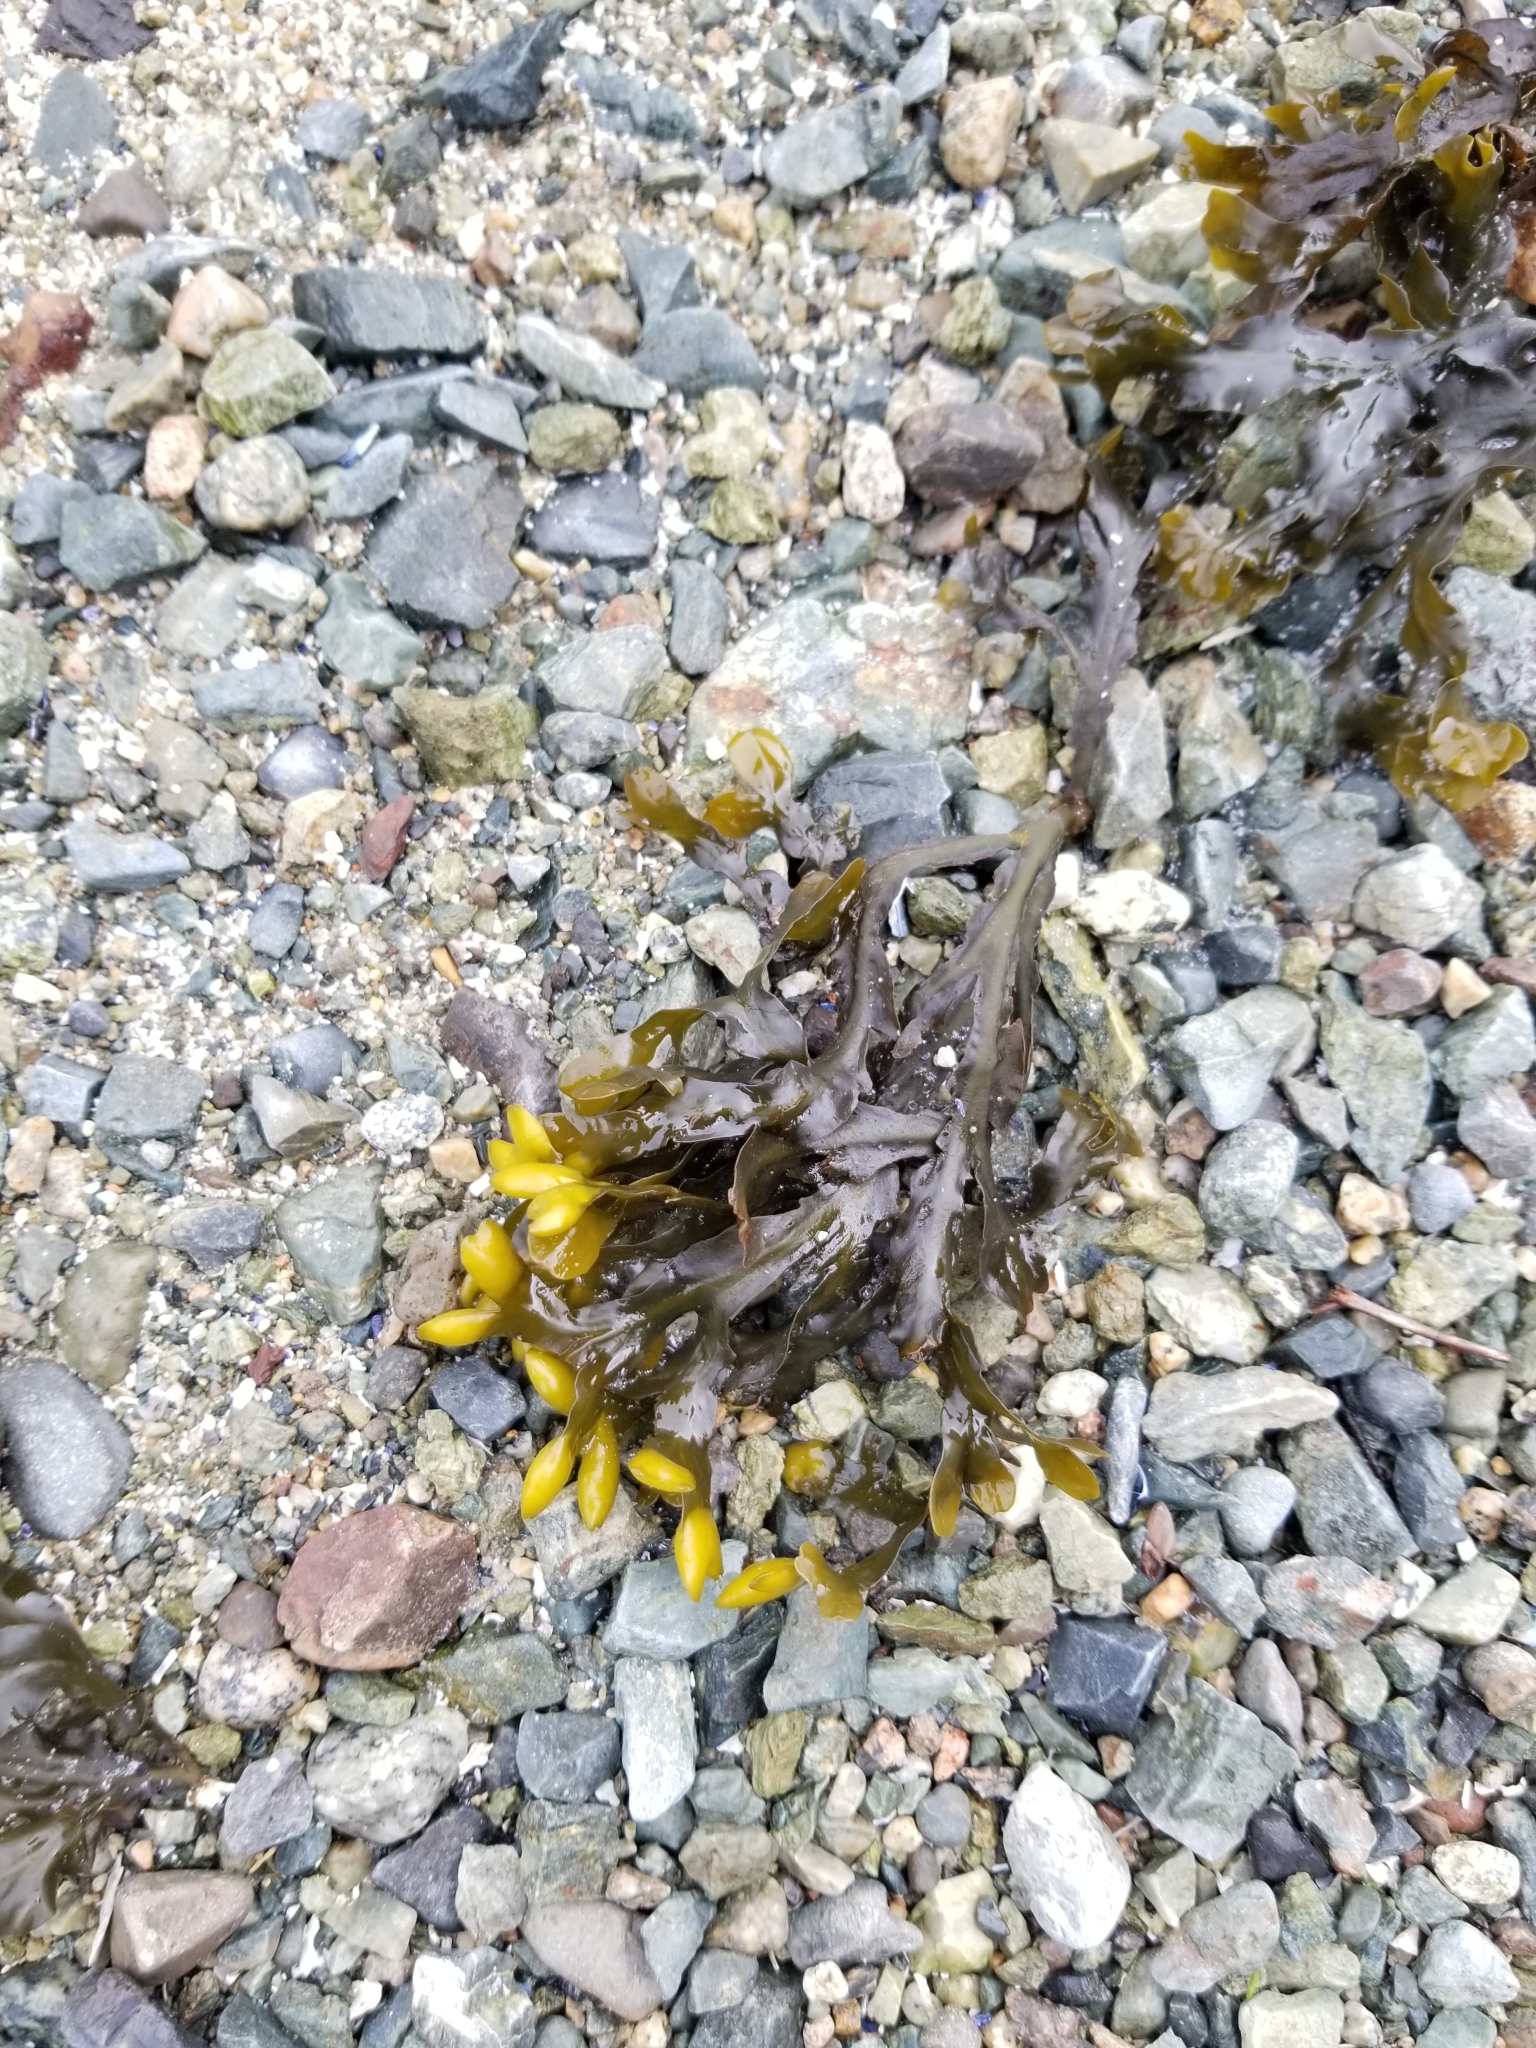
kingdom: Chromista
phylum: Ochrophyta
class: Phaeophyceae
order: Fucales
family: Fucaceae
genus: Fucus
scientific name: Fucus distichus
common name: Rockweed
